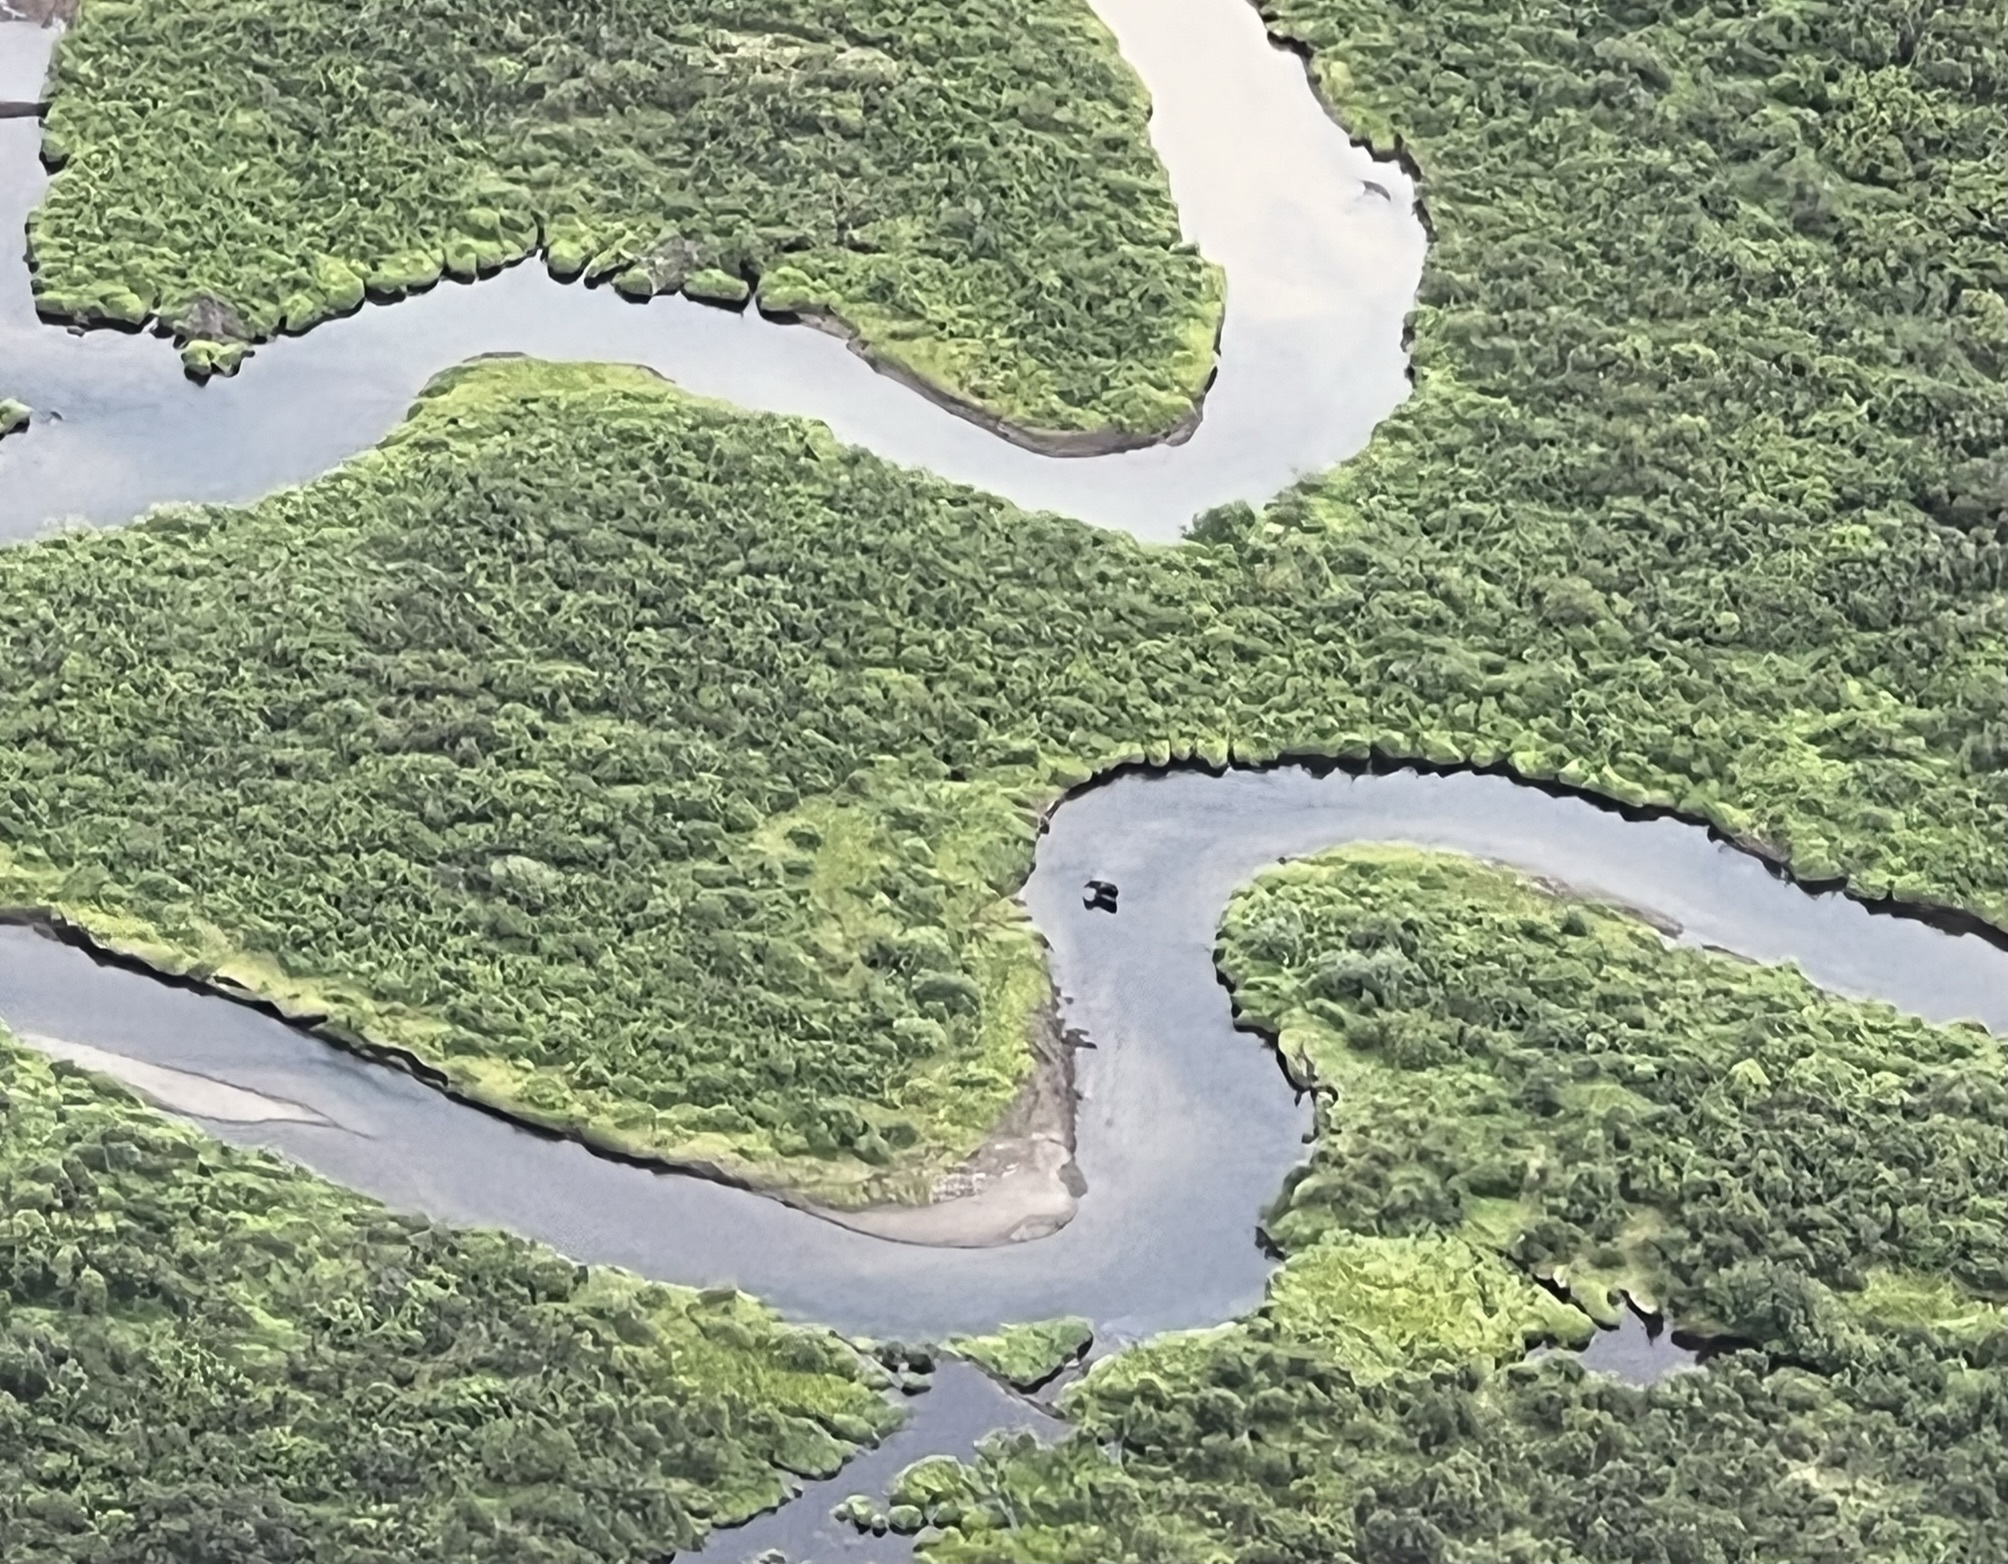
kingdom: Animalia
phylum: Chordata
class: Mammalia
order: Artiodactyla
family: Cervidae
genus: Alces
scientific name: Alces alces
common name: Moose
